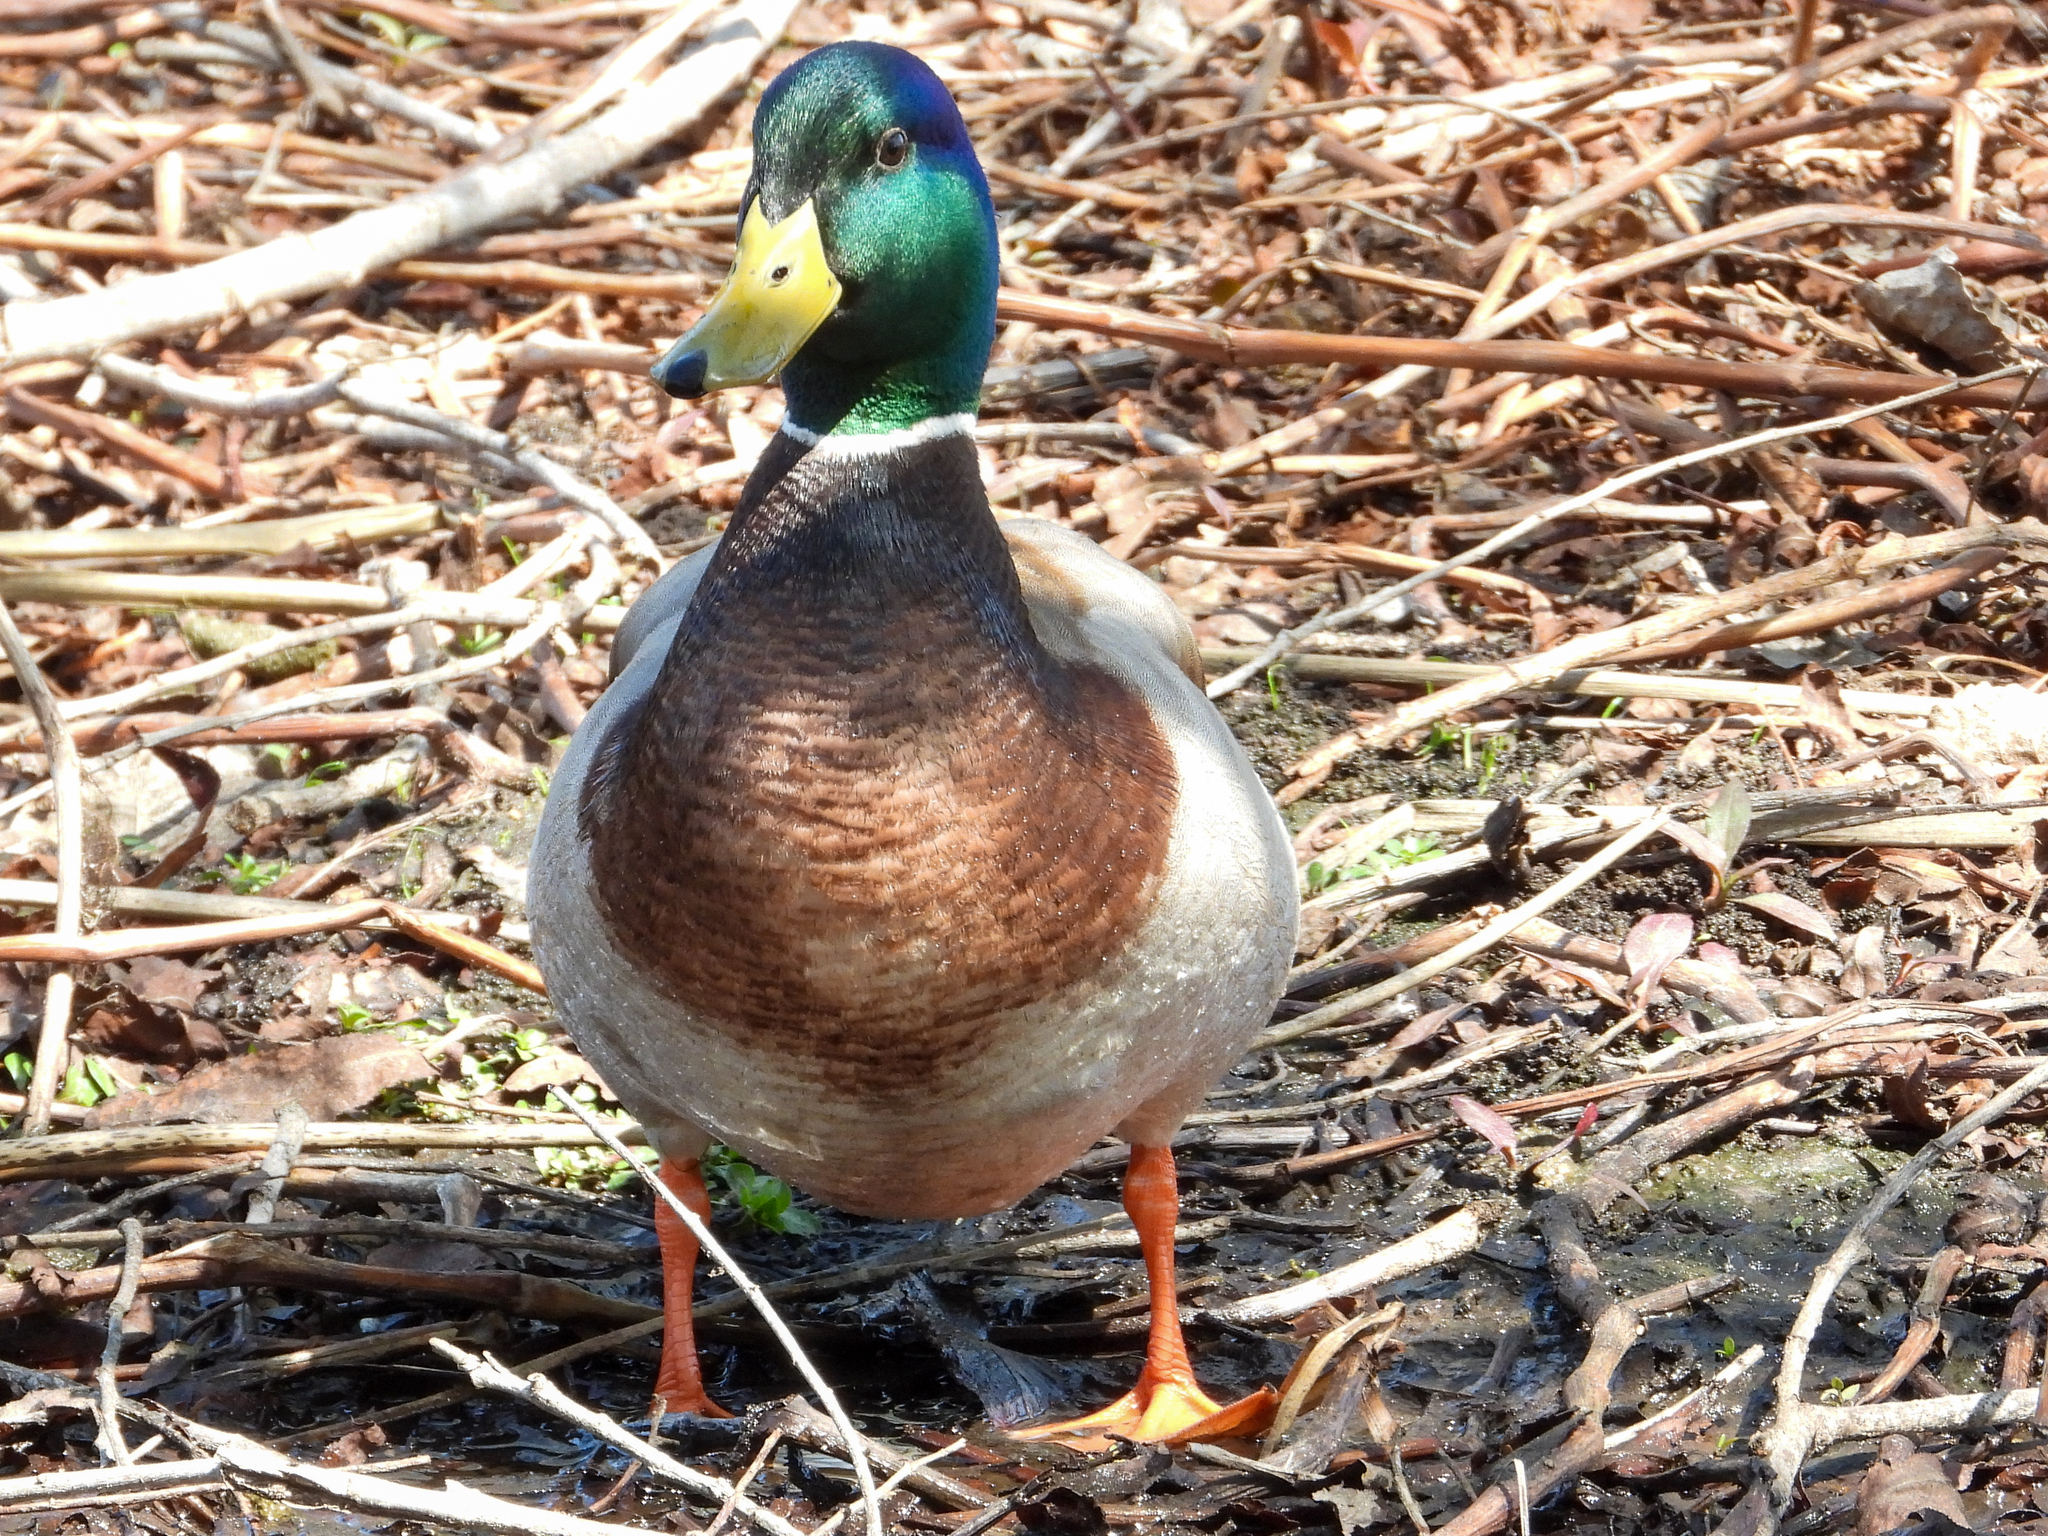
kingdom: Animalia
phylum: Chordata
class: Aves
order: Anseriformes
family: Anatidae
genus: Anas
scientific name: Anas platyrhynchos
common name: Mallard
